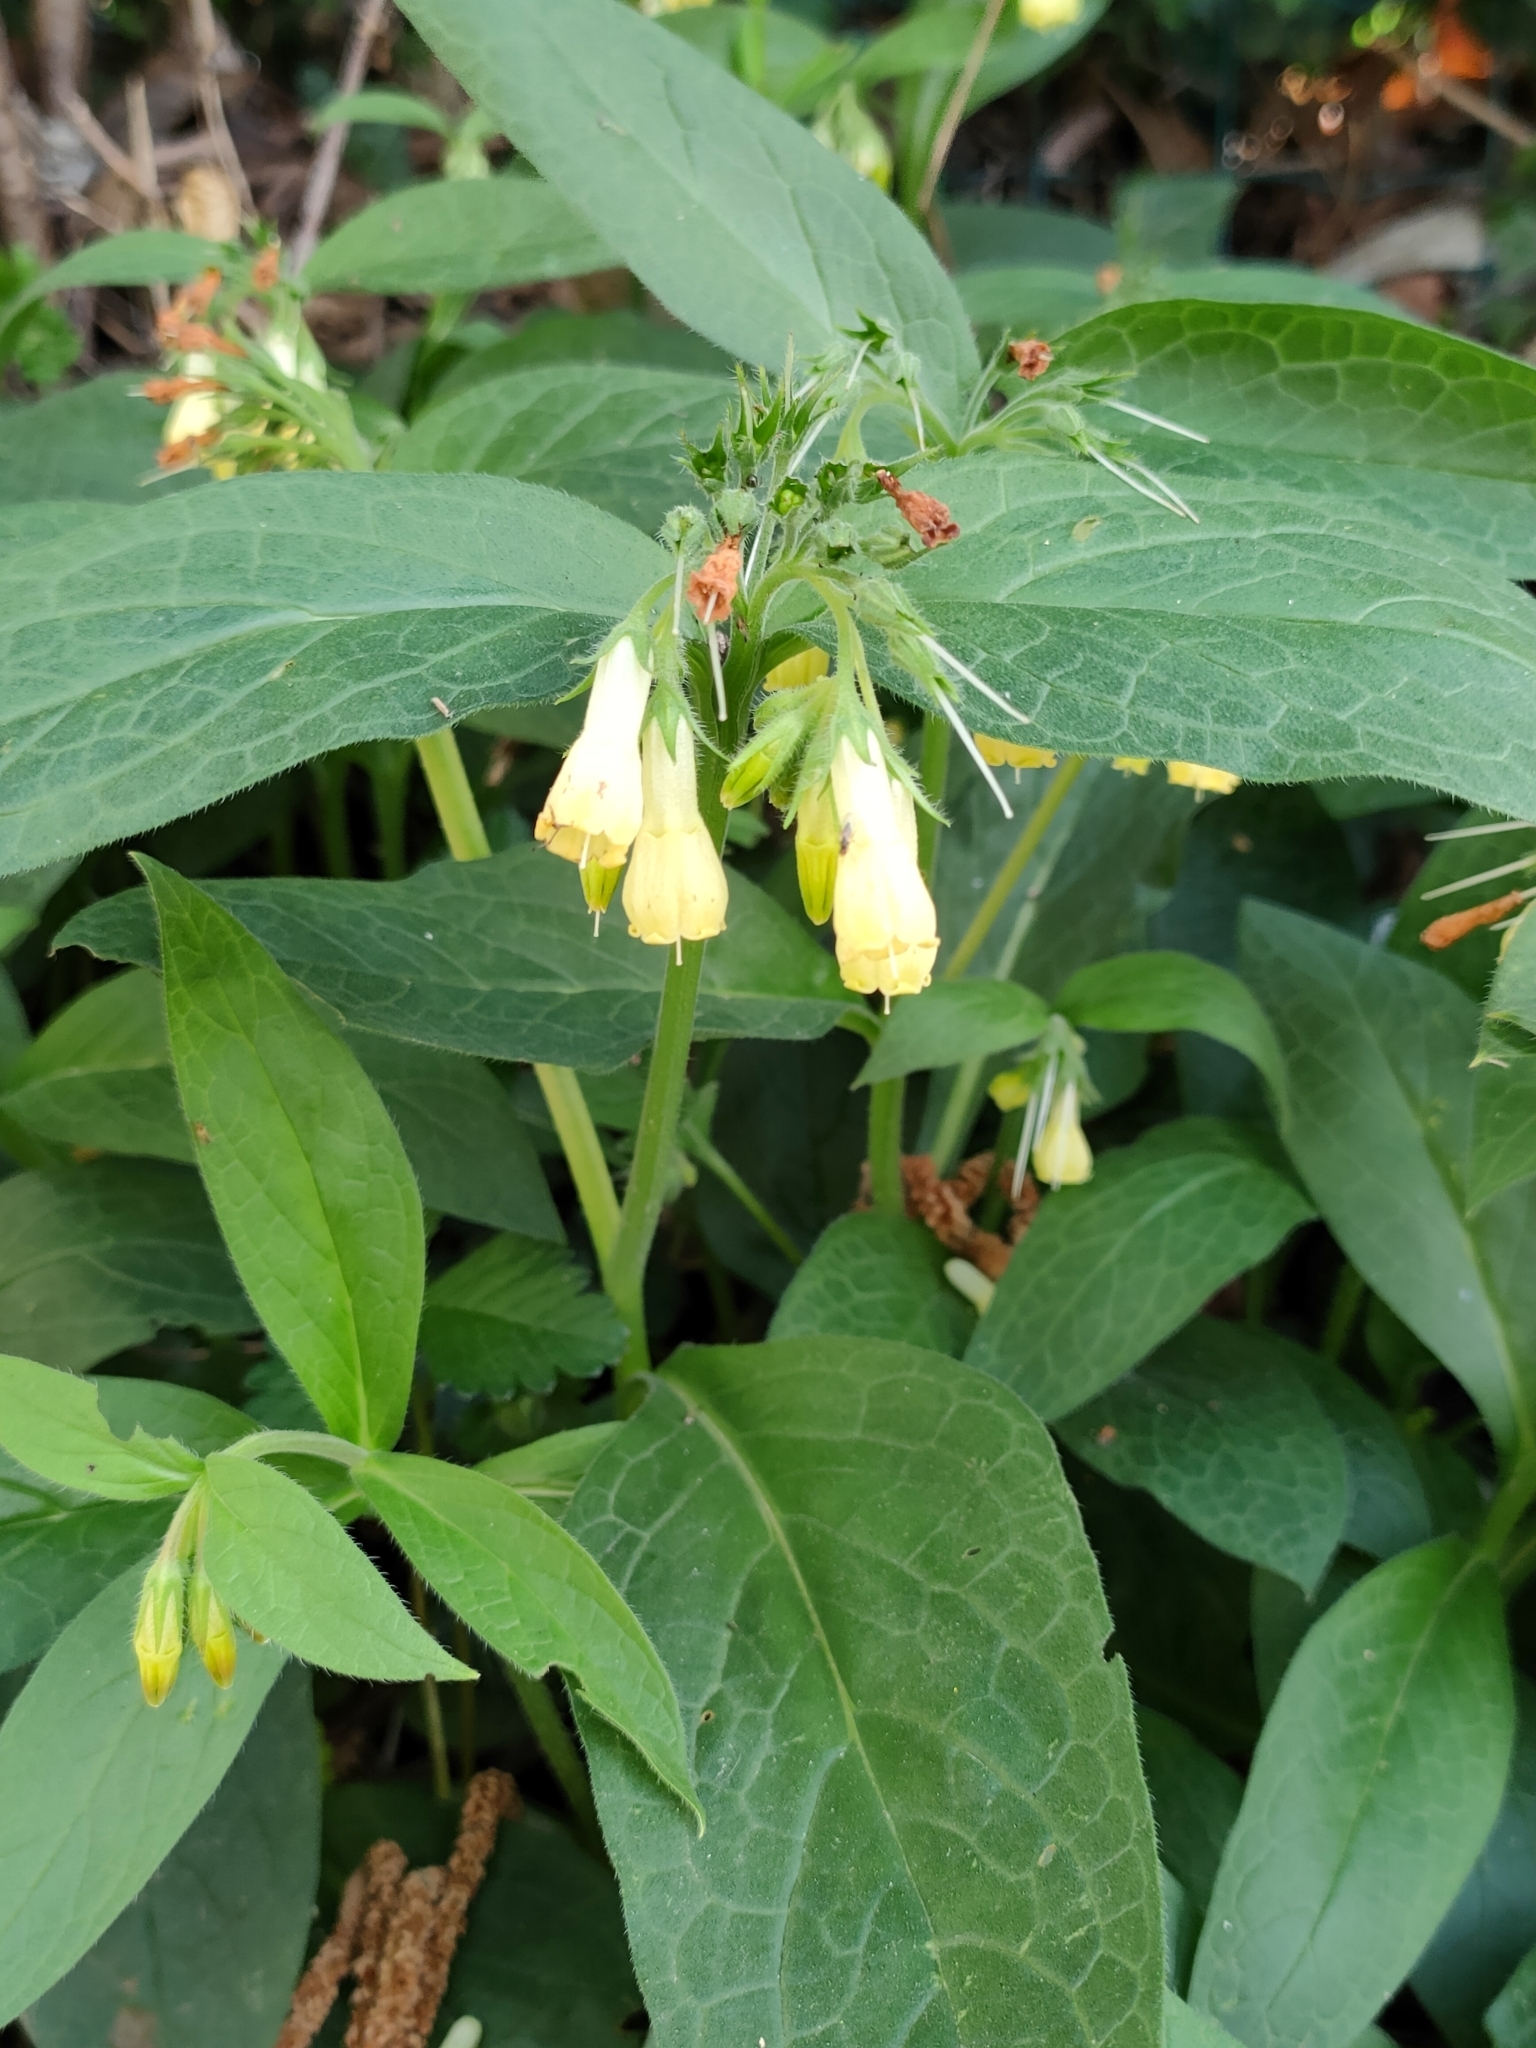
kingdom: Plantae
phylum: Tracheophyta
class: Magnoliopsida
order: Boraginales
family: Boraginaceae
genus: Symphytum
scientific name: Symphytum tuberosum
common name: Tuberous comfrey
